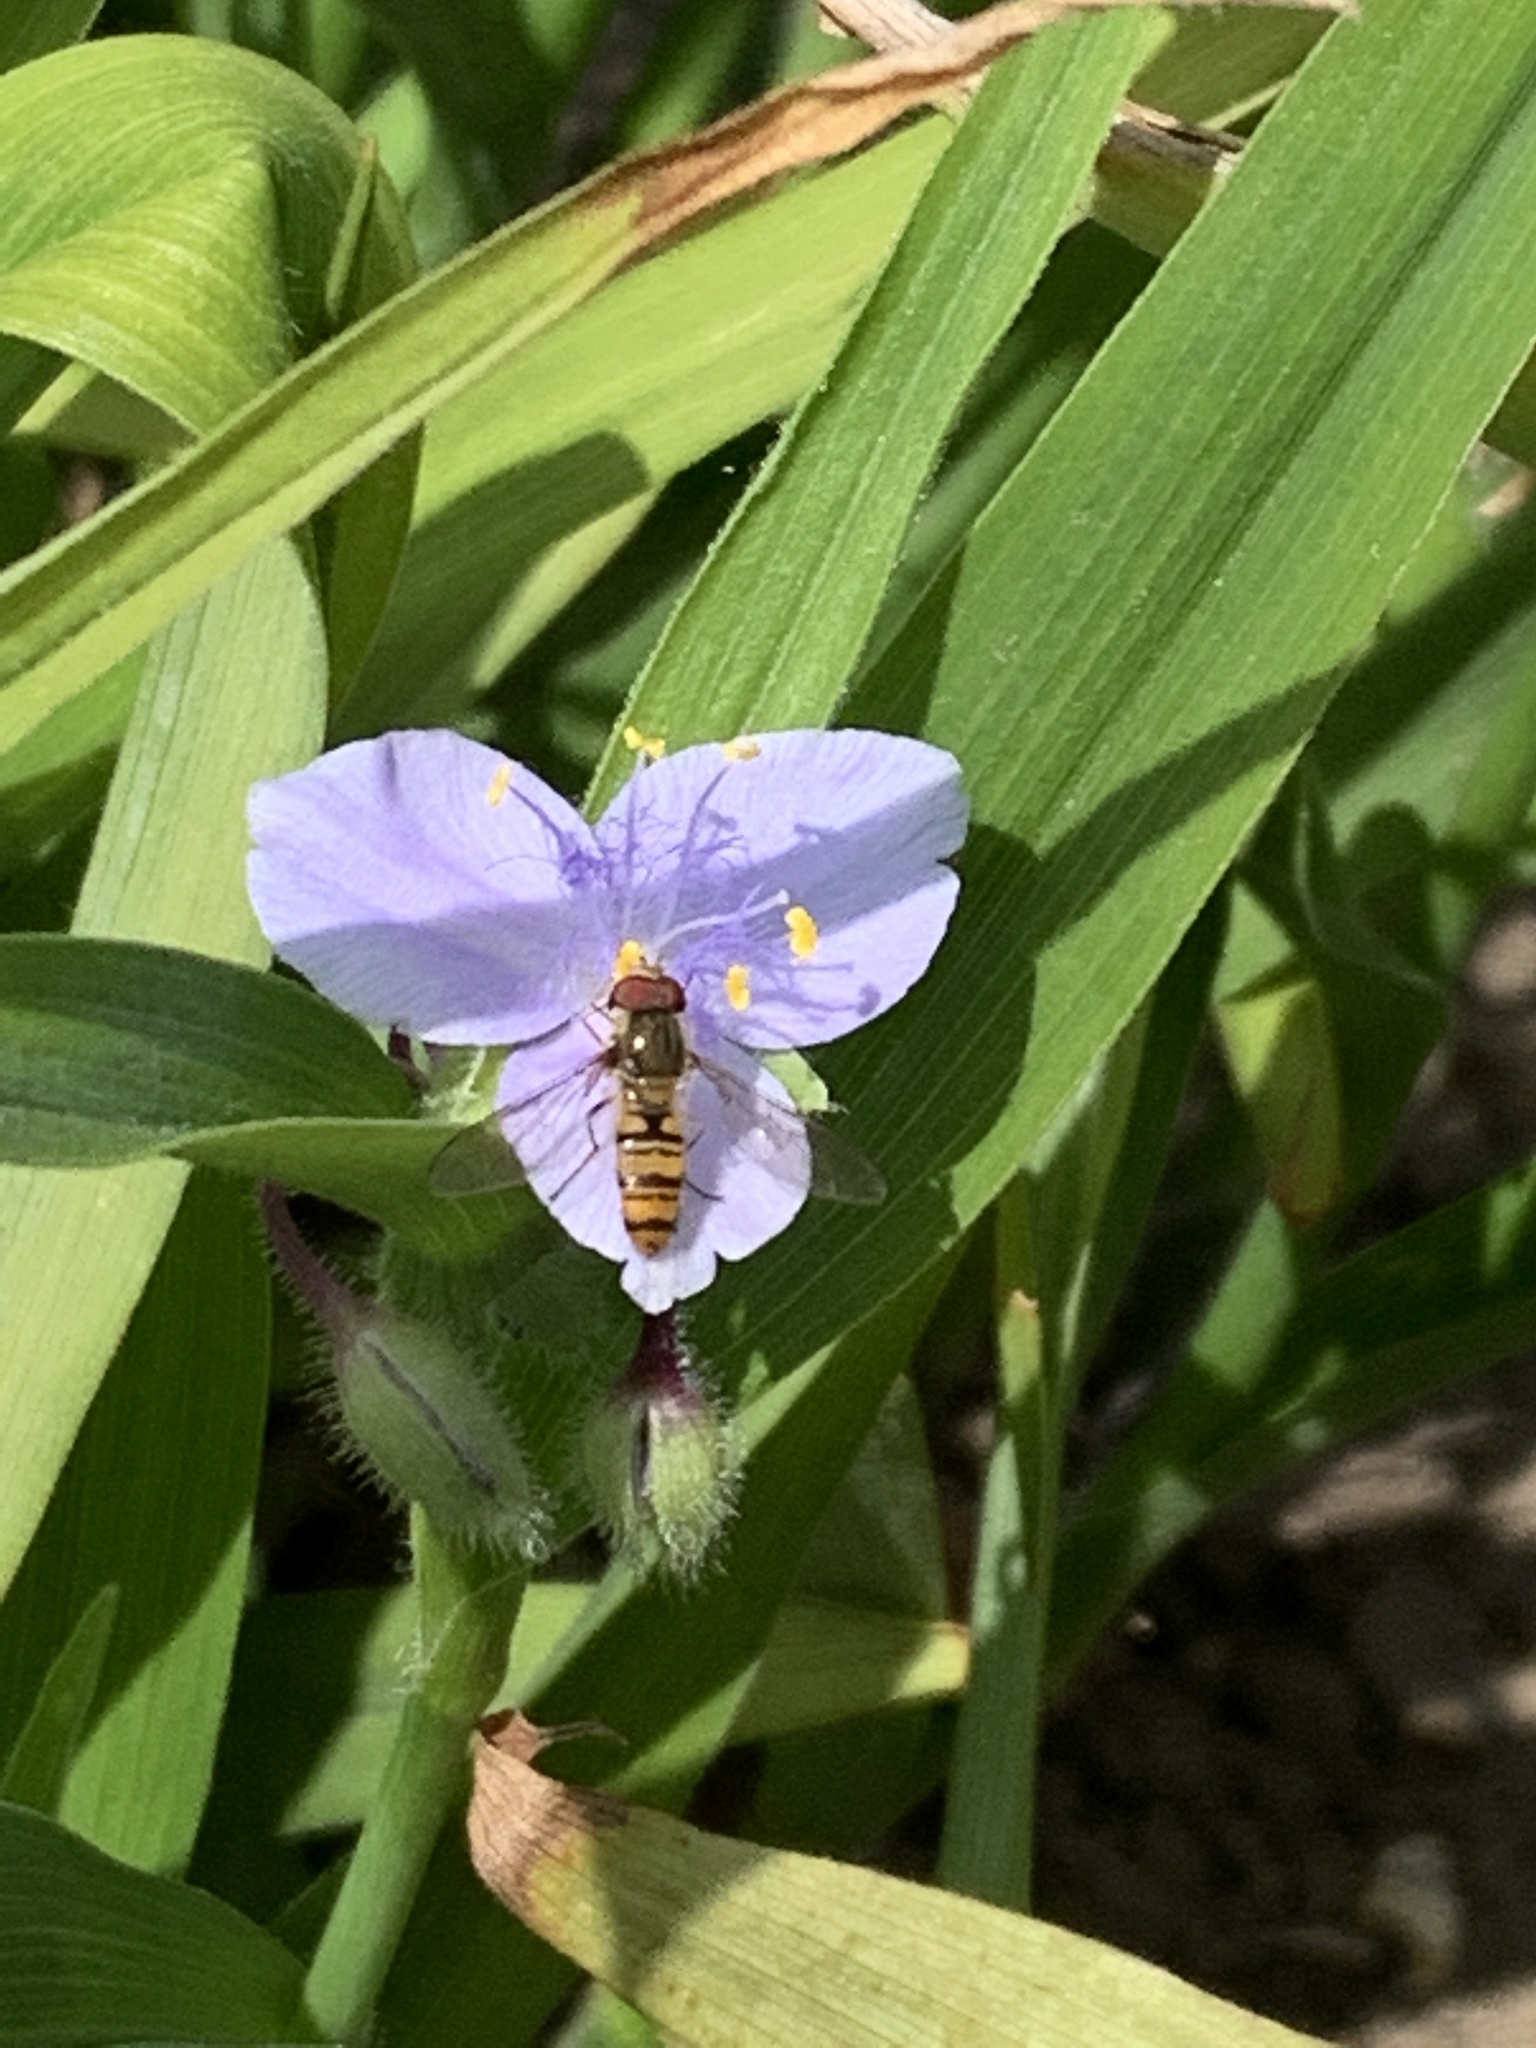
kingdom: Animalia
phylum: Arthropoda
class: Insecta
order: Diptera
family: Syrphidae
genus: Episyrphus
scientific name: Episyrphus balteatus
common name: Marmalade hoverfly
